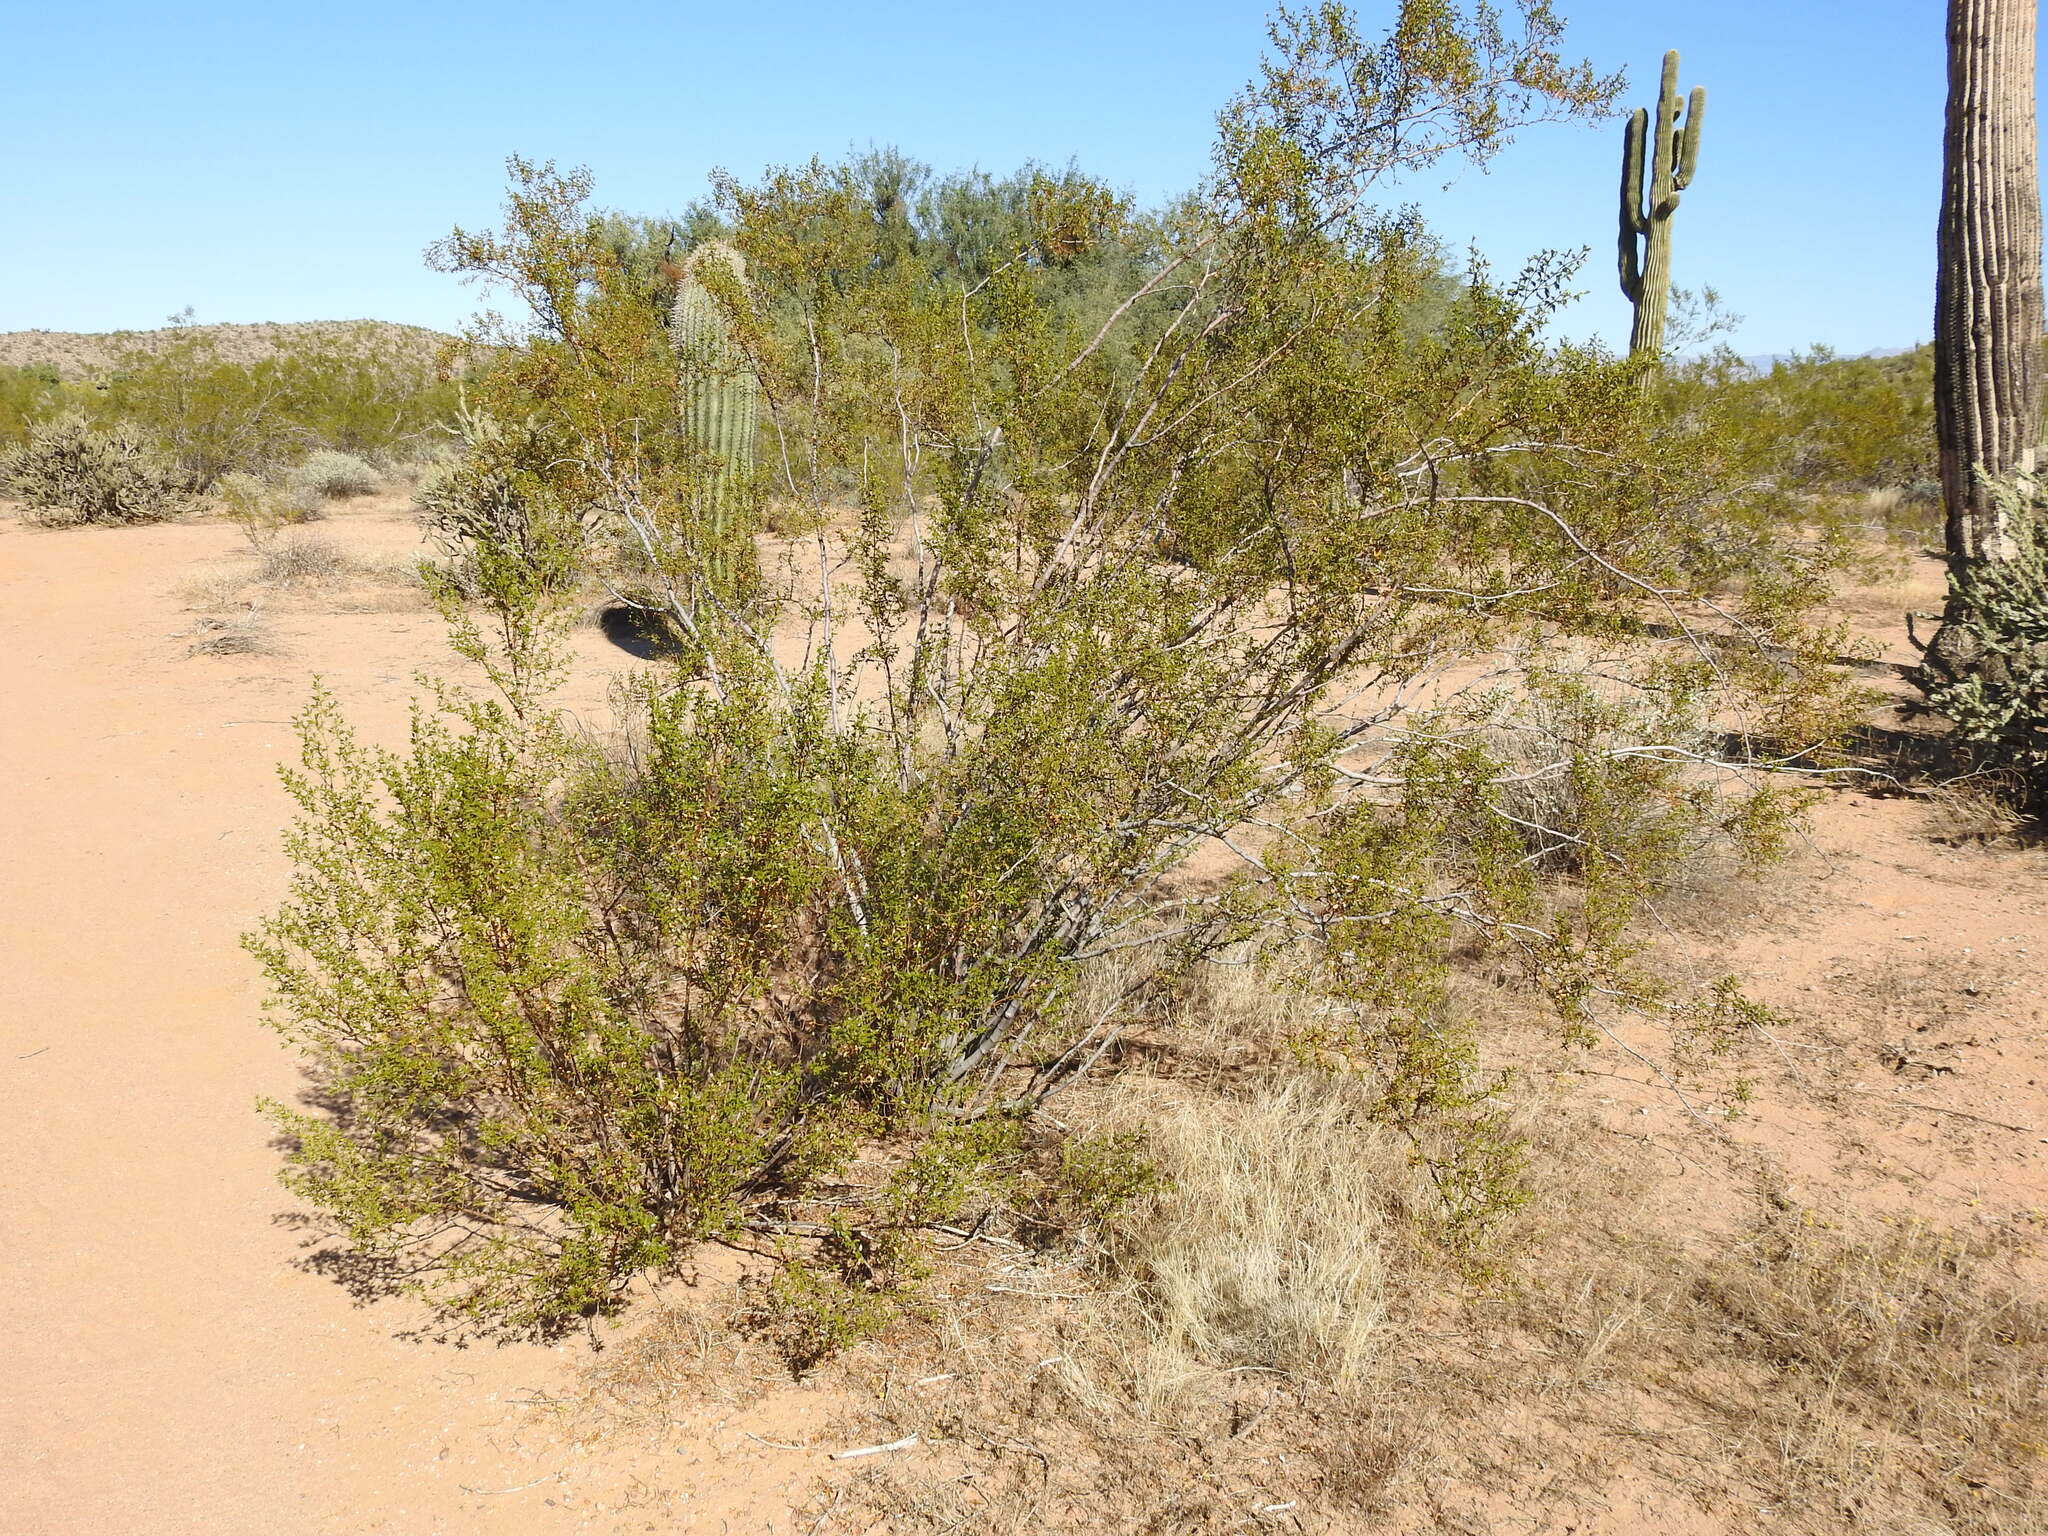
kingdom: Plantae
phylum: Tracheophyta
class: Magnoliopsida
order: Zygophyllales
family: Zygophyllaceae
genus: Larrea
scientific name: Larrea tridentata
